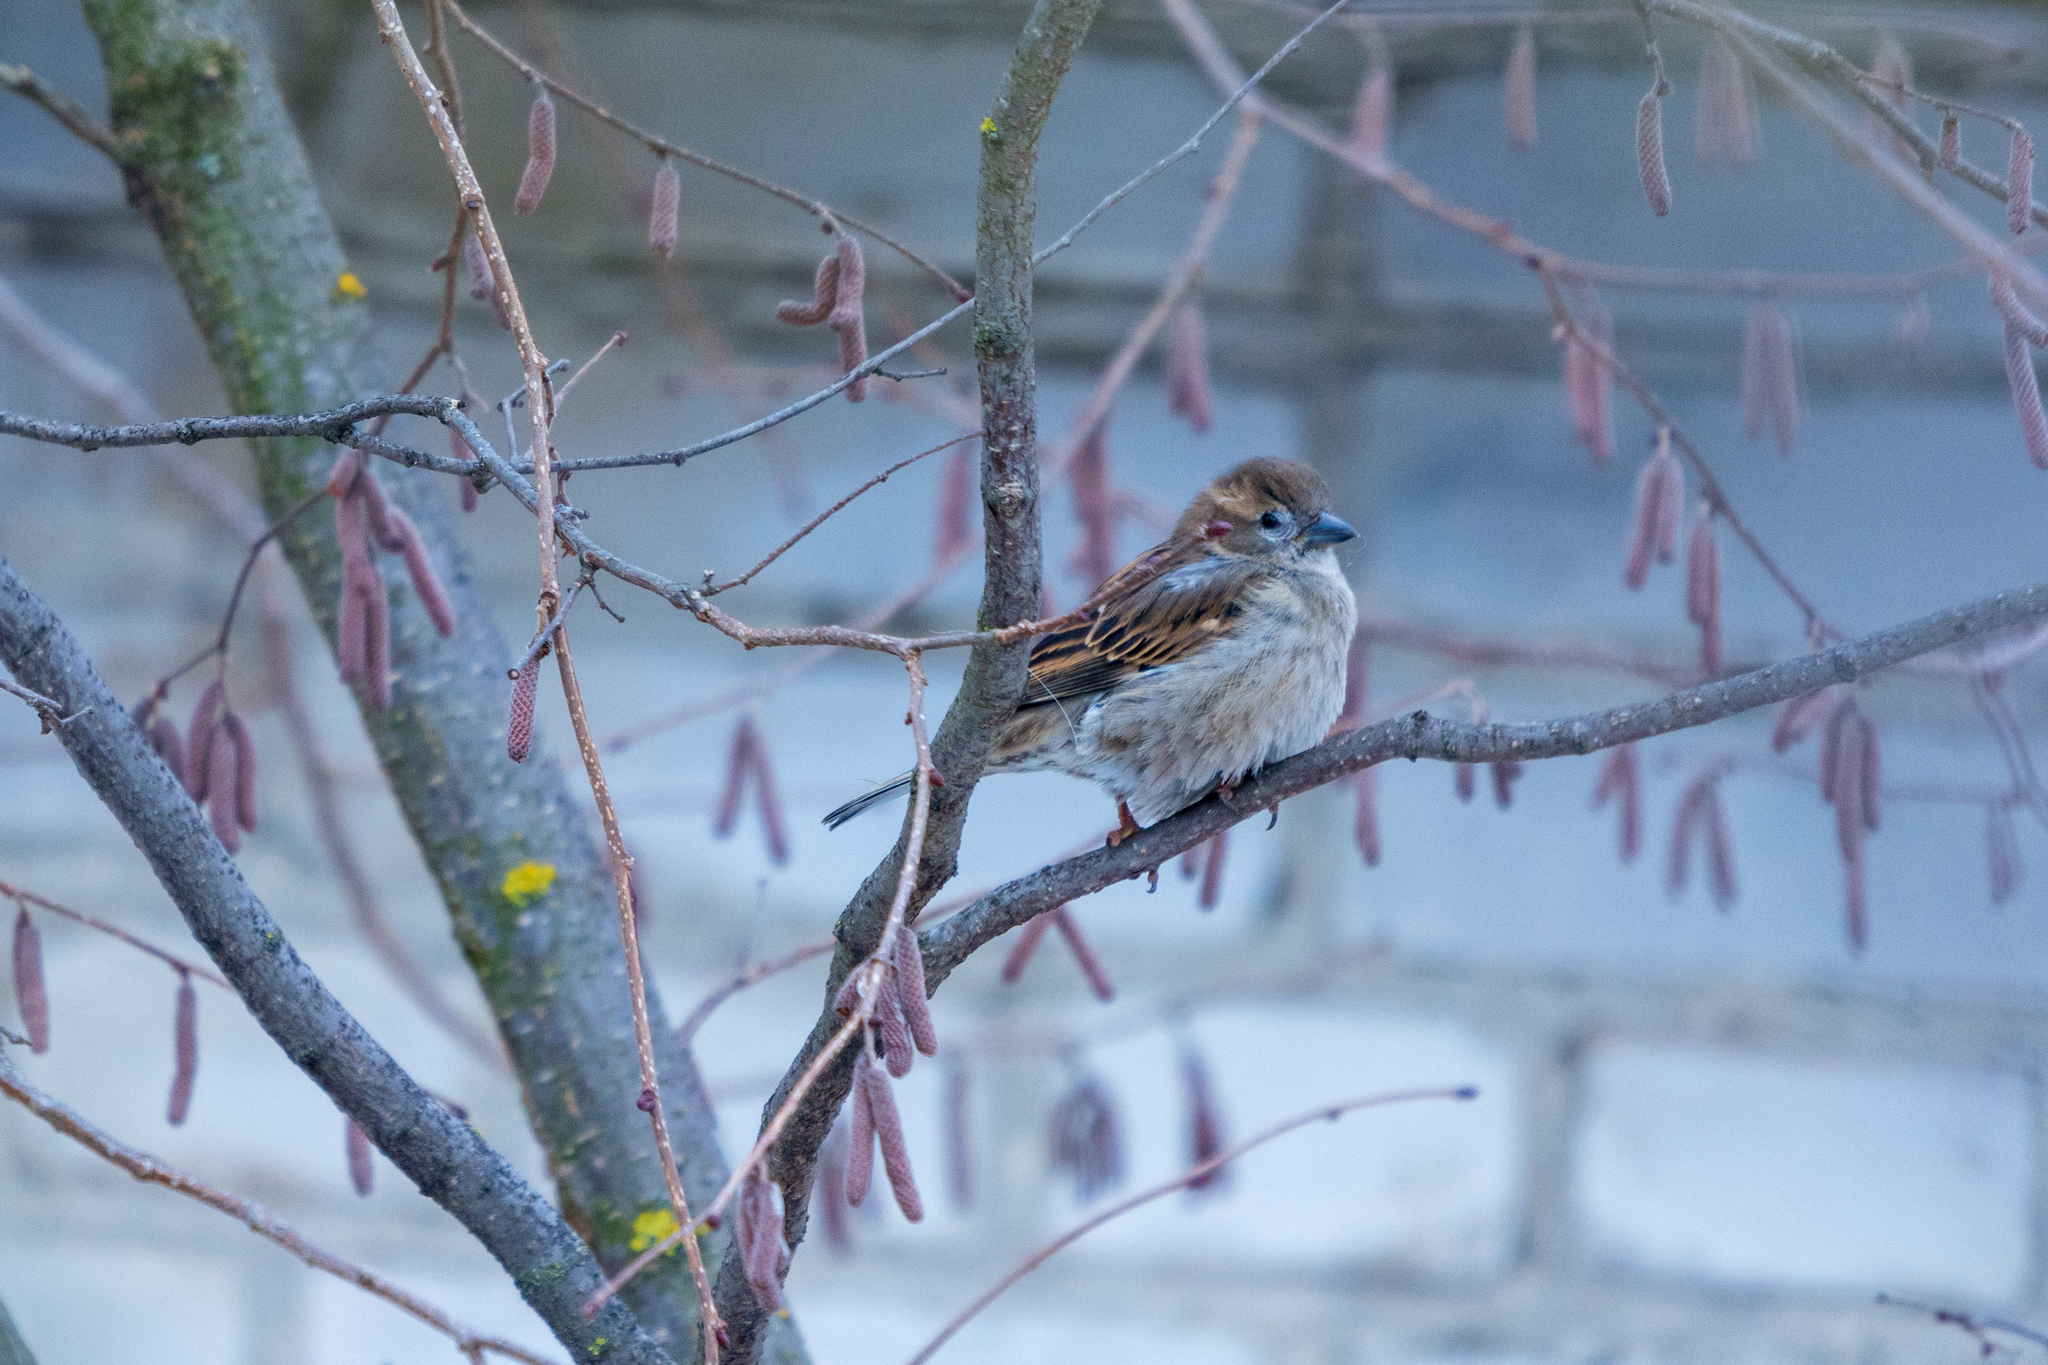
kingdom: Animalia
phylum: Chordata
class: Aves
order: Passeriformes
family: Passeridae
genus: Passer
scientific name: Passer domesticus
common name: House sparrow
